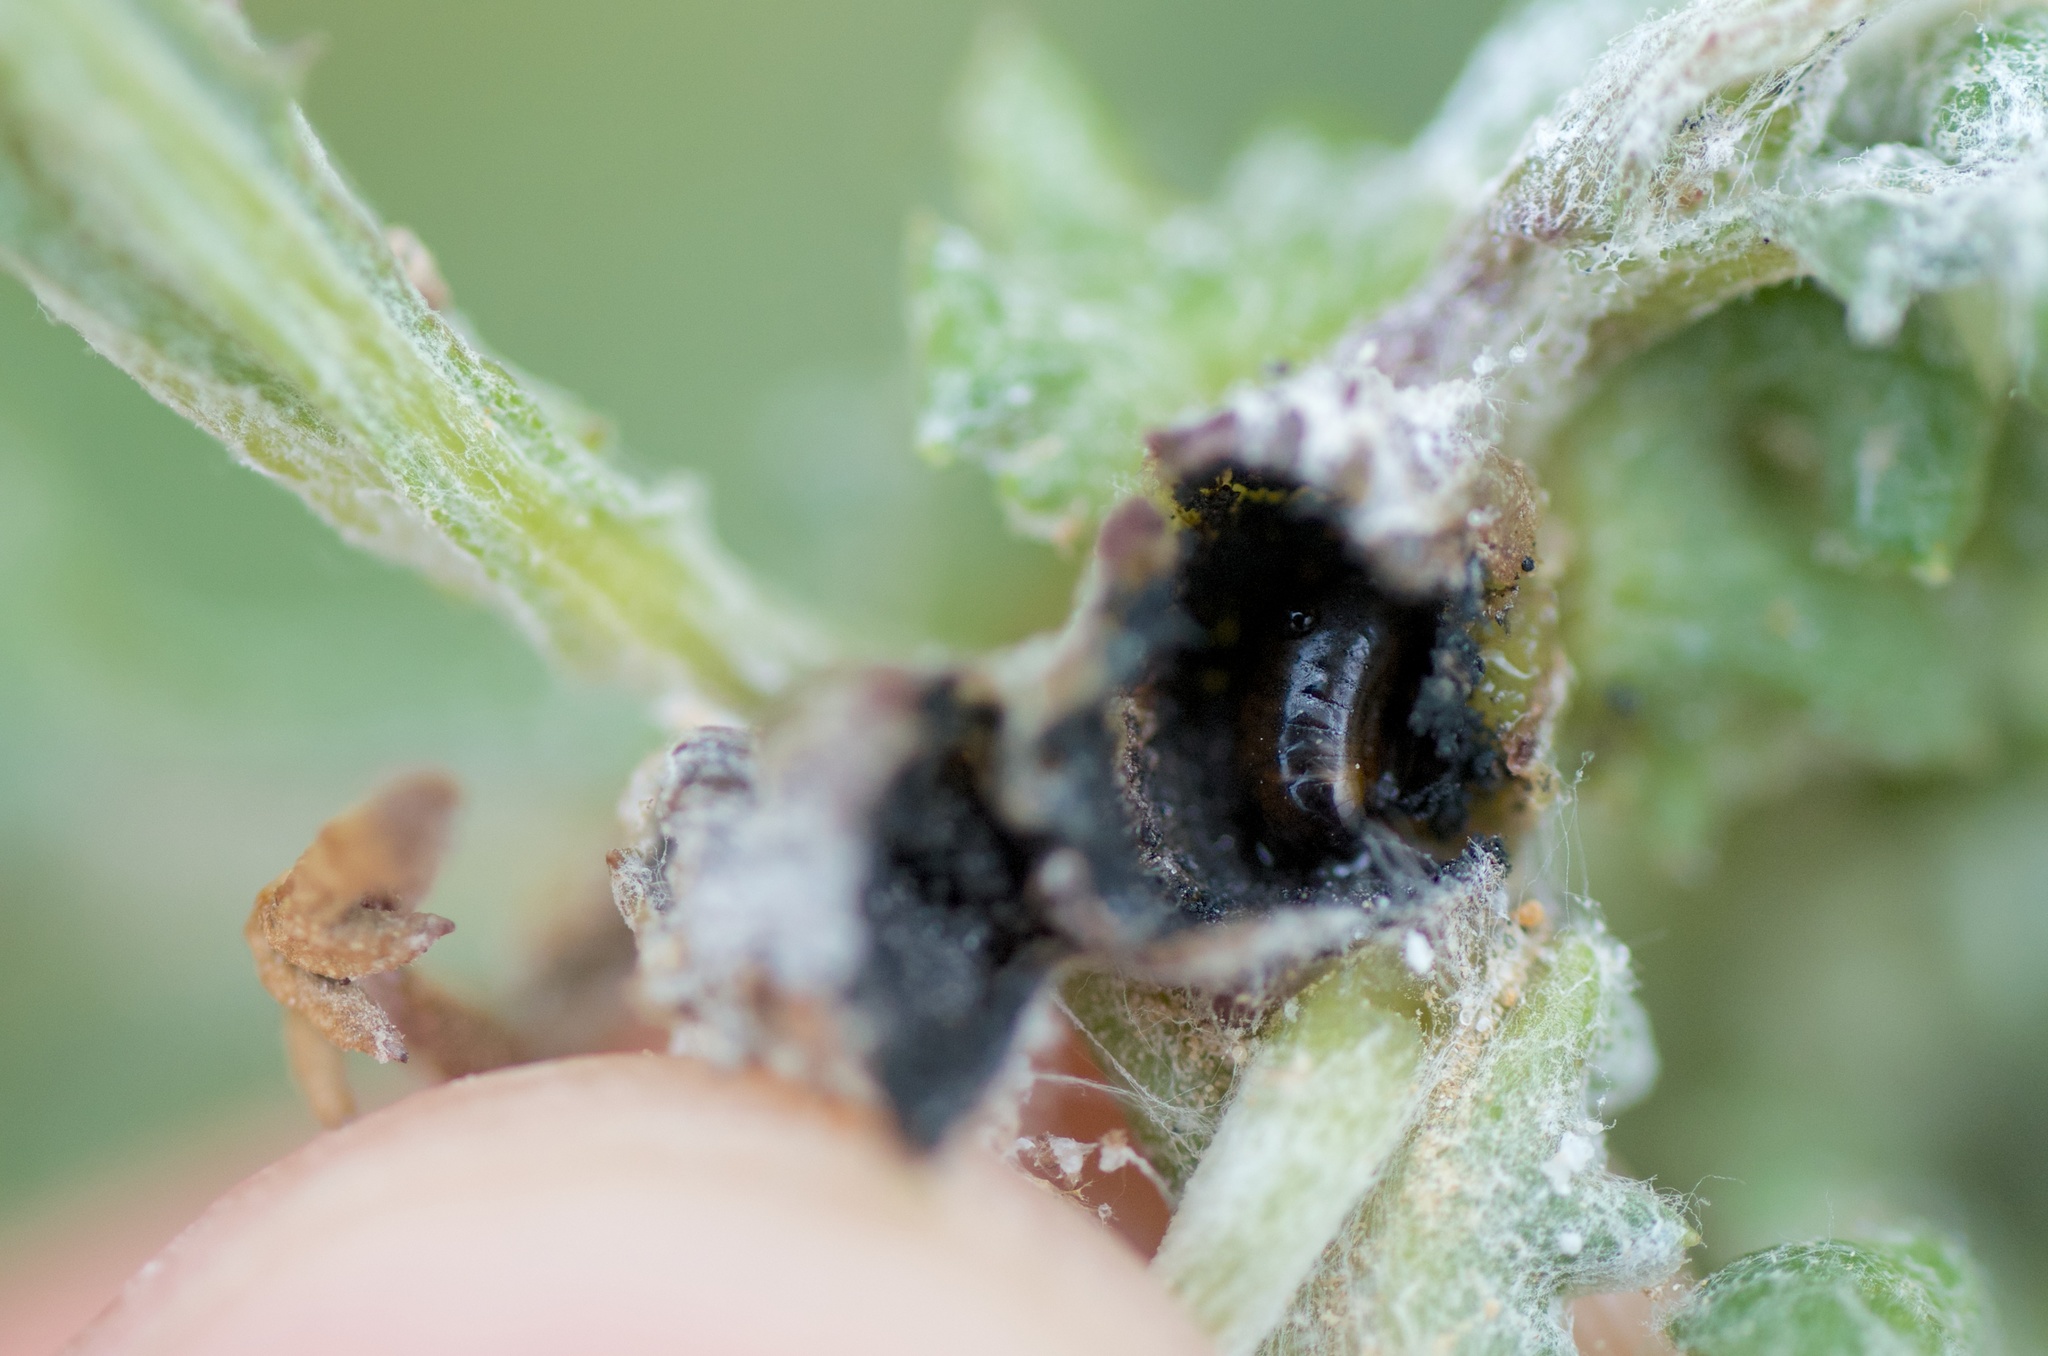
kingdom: Animalia
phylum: Arthropoda
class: Insecta
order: Diptera
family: Tephritidae
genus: Sphenella
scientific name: Sphenella
